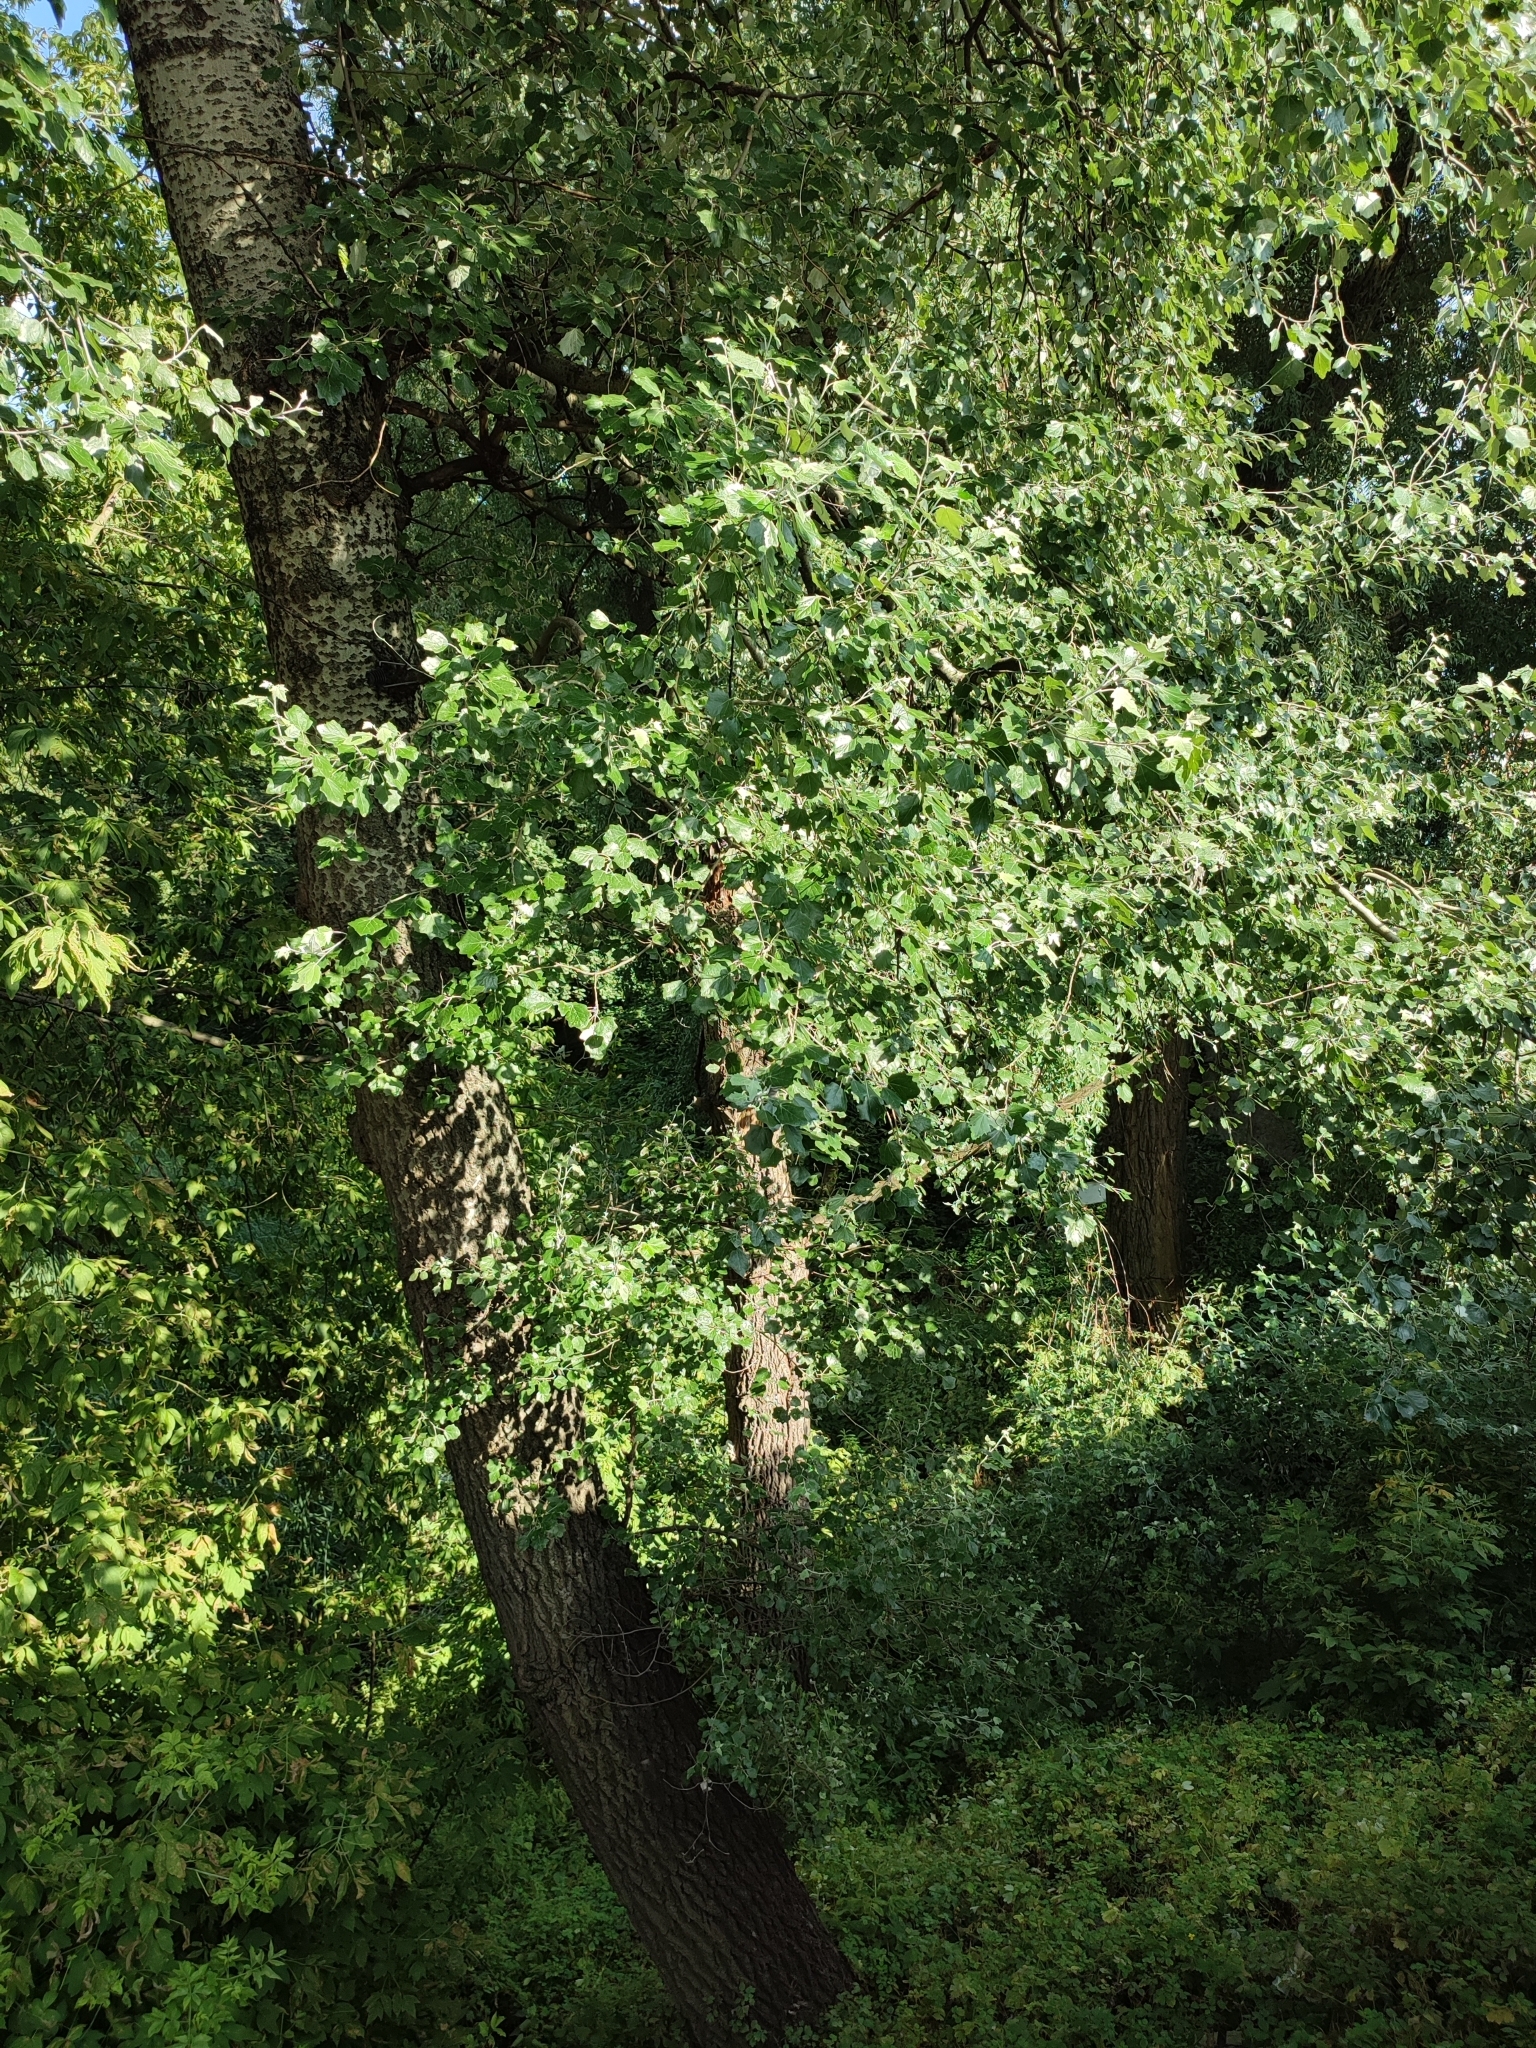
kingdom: Plantae
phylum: Tracheophyta
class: Magnoliopsida
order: Malpighiales
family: Salicaceae
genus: Populus
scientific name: Populus alba
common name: White poplar
